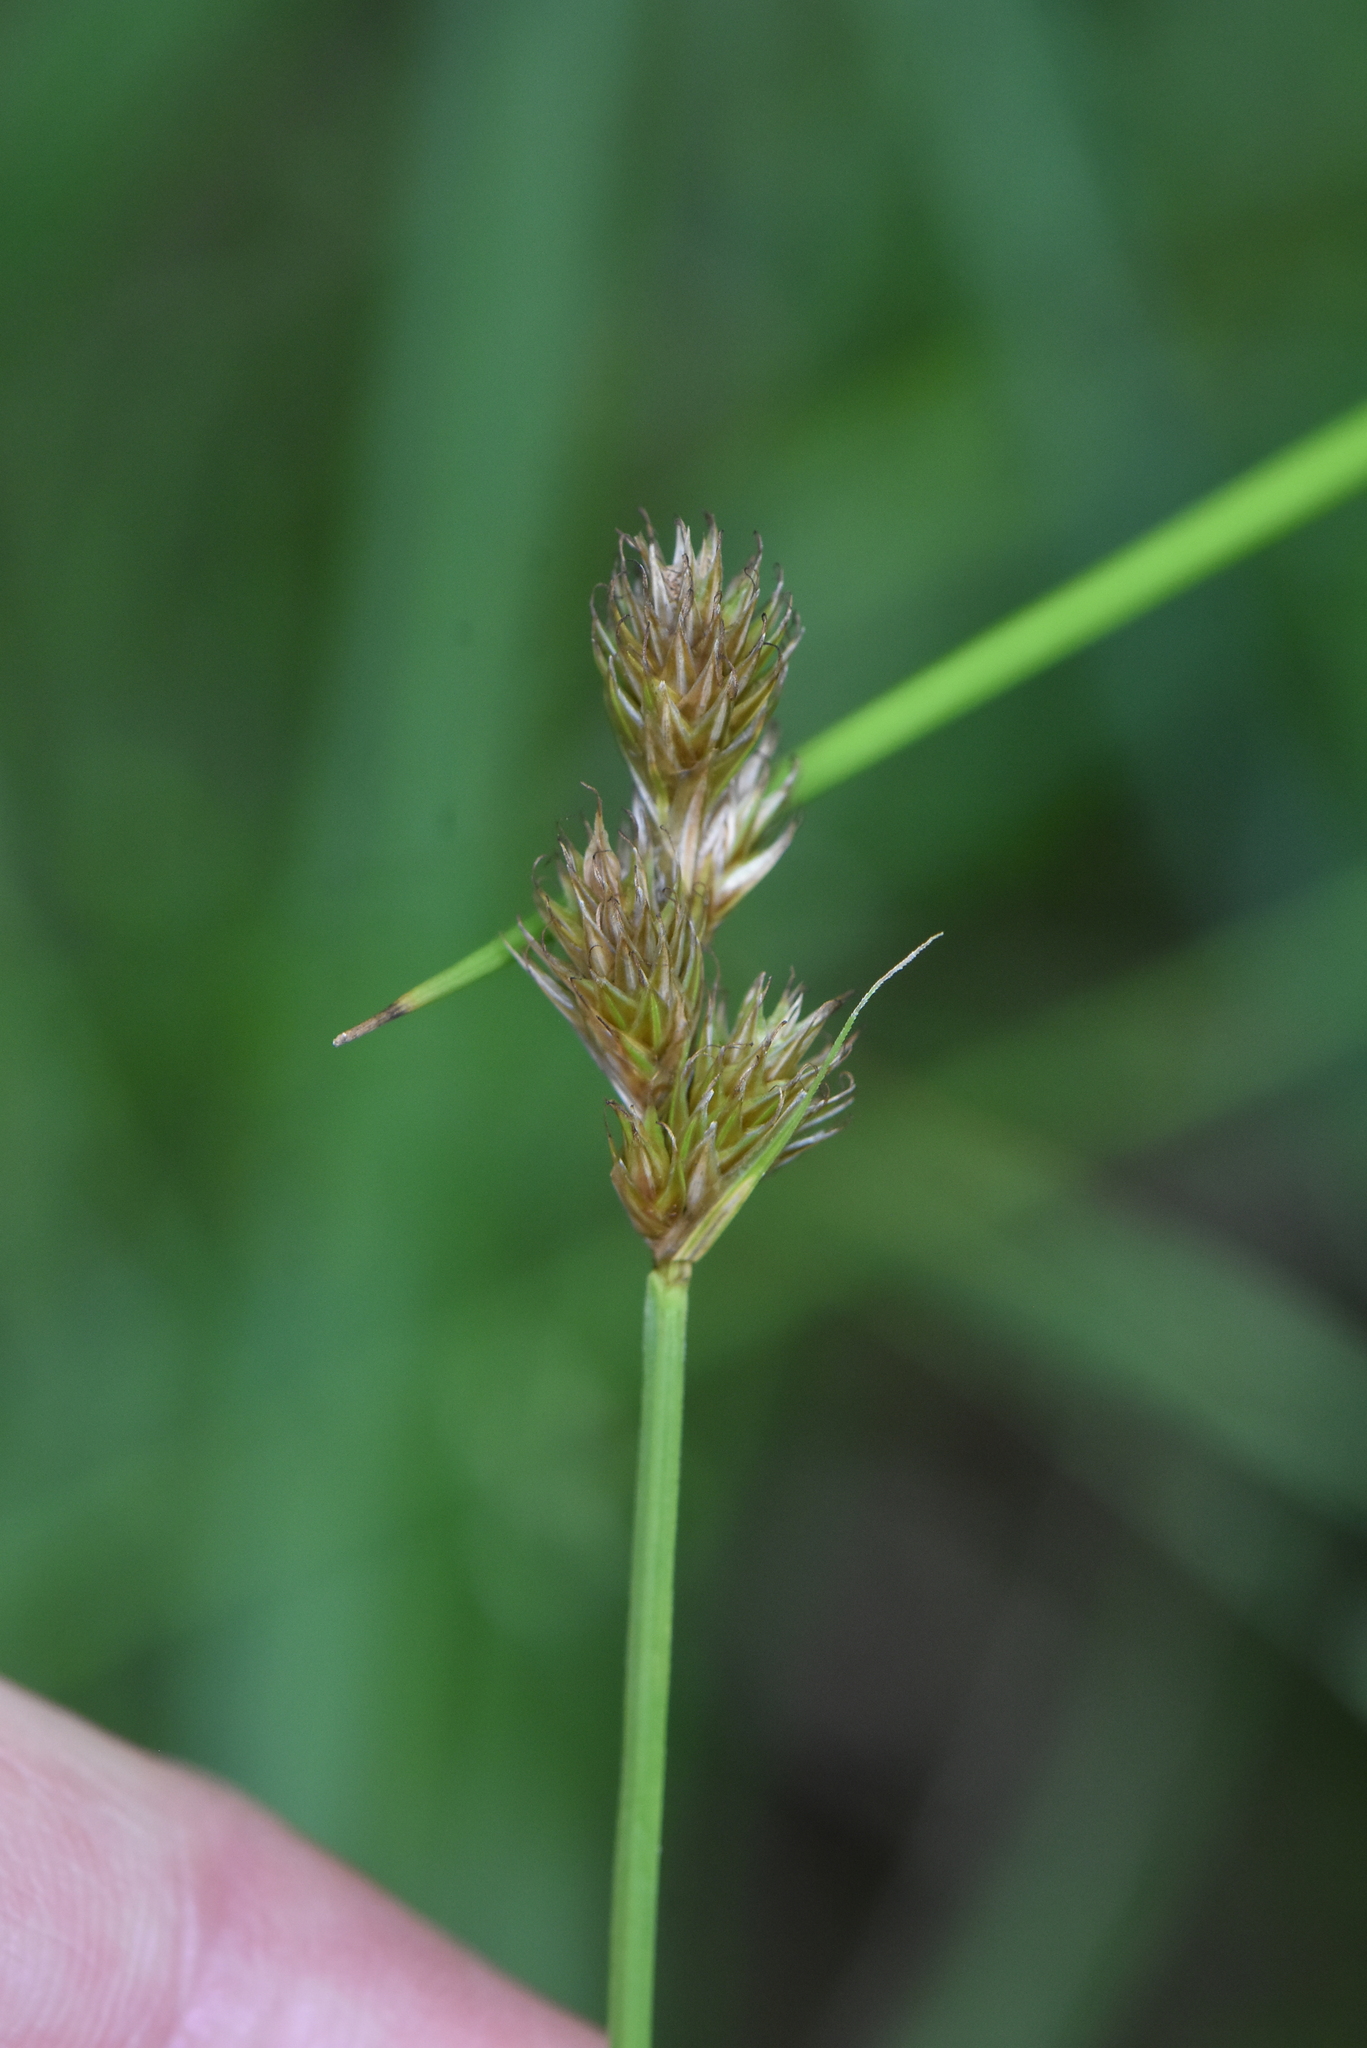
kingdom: Plantae
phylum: Tracheophyta
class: Liliopsida
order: Poales
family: Cyperaceae
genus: Carex
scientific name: Carex leporina
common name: Oval sedge
